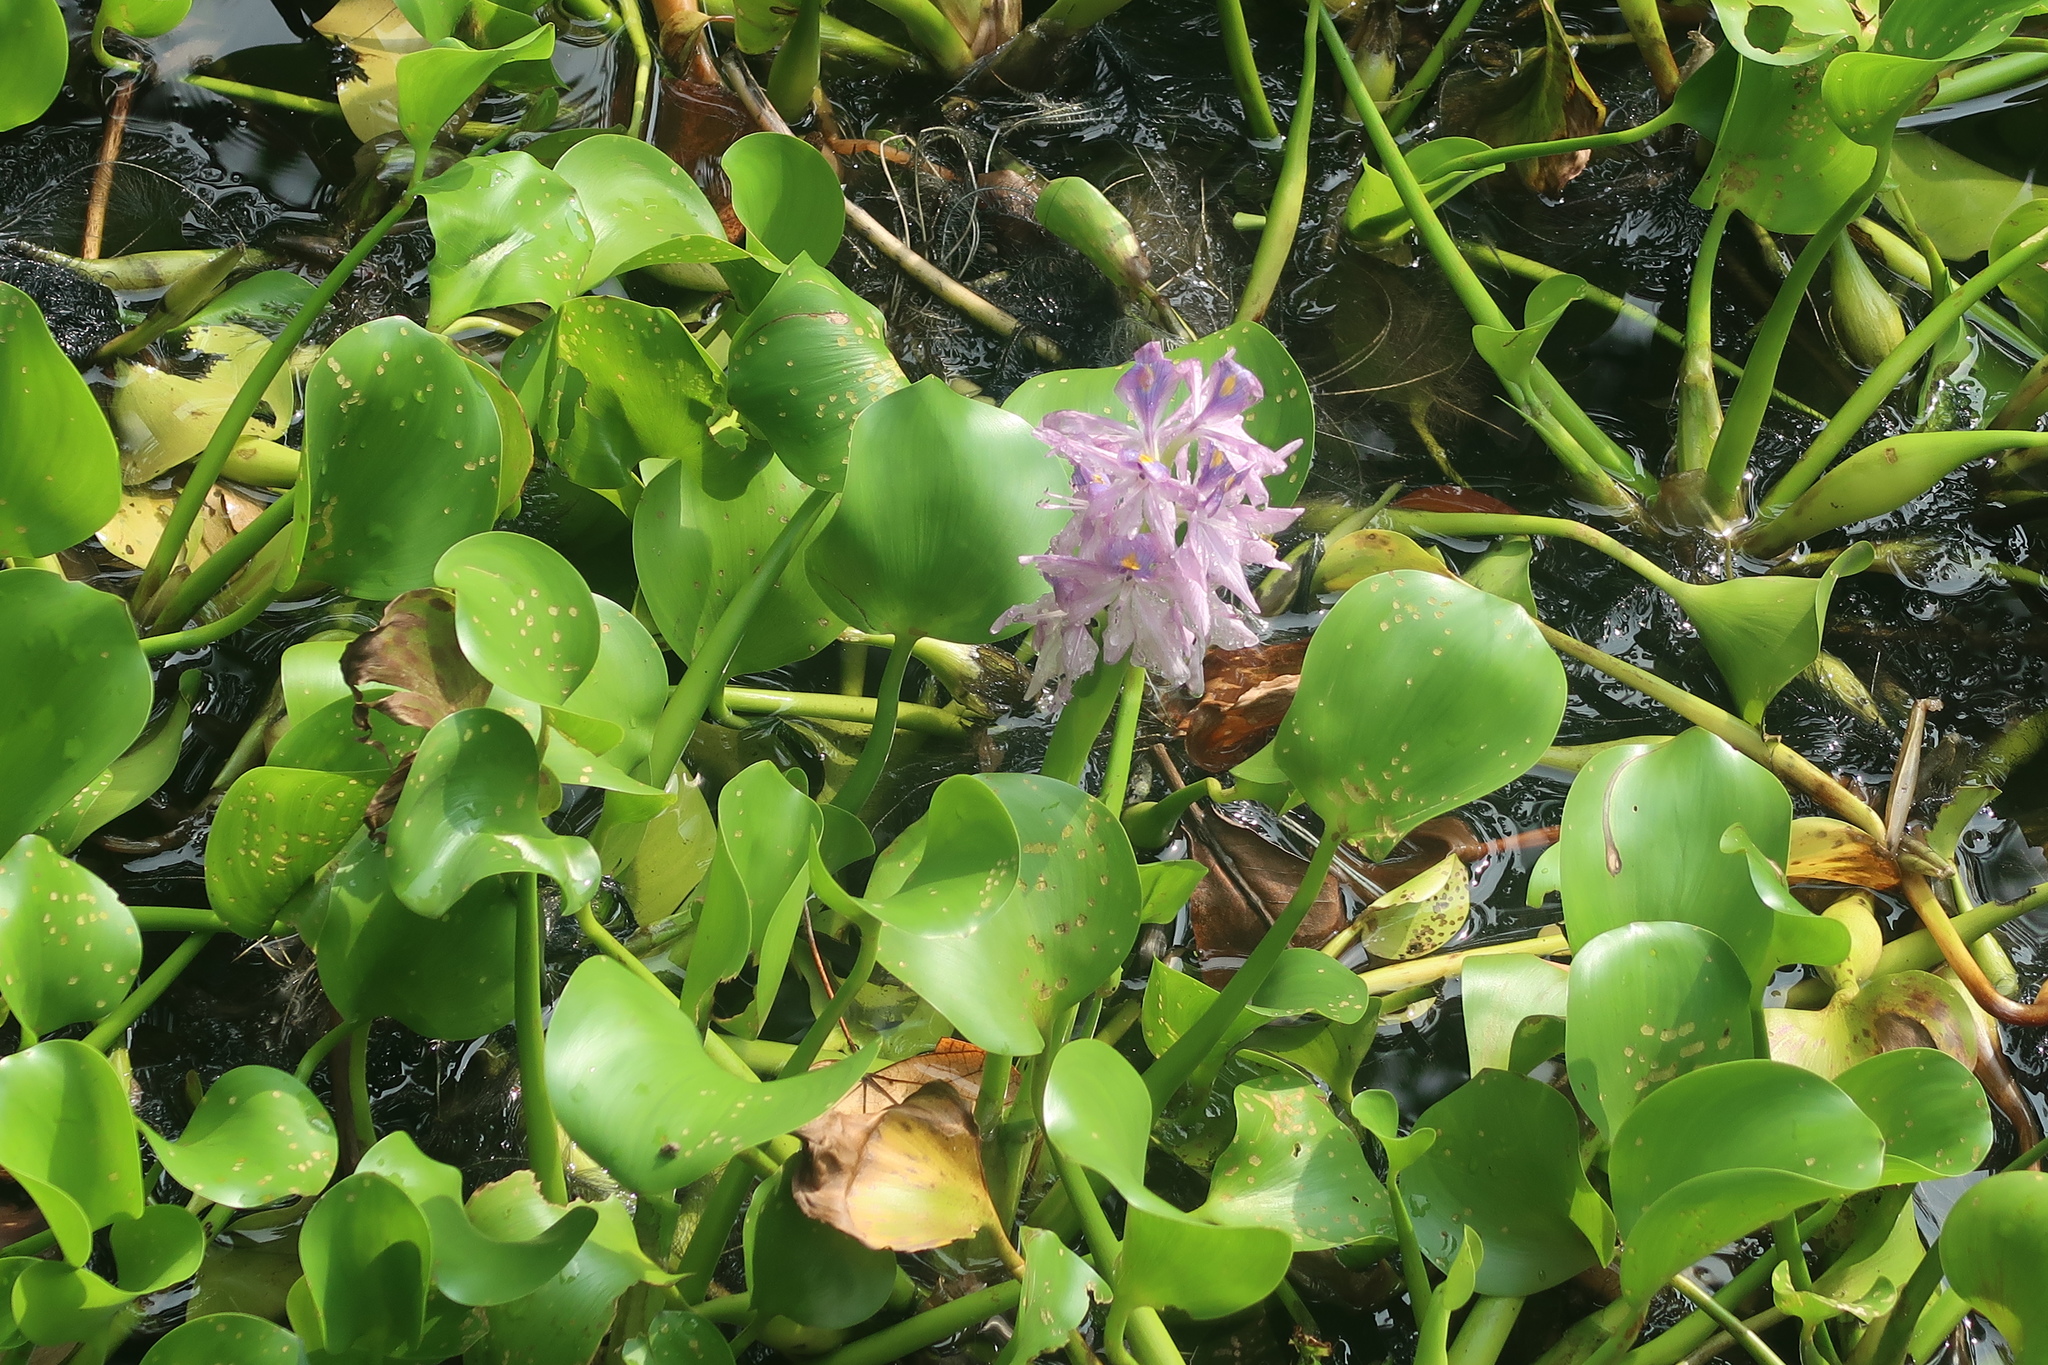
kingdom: Plantae
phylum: Tracheophyta
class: Liliopsida
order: Commelinales
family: Pontederiaceae
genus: Pontederia
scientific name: Pontederia crassipes
